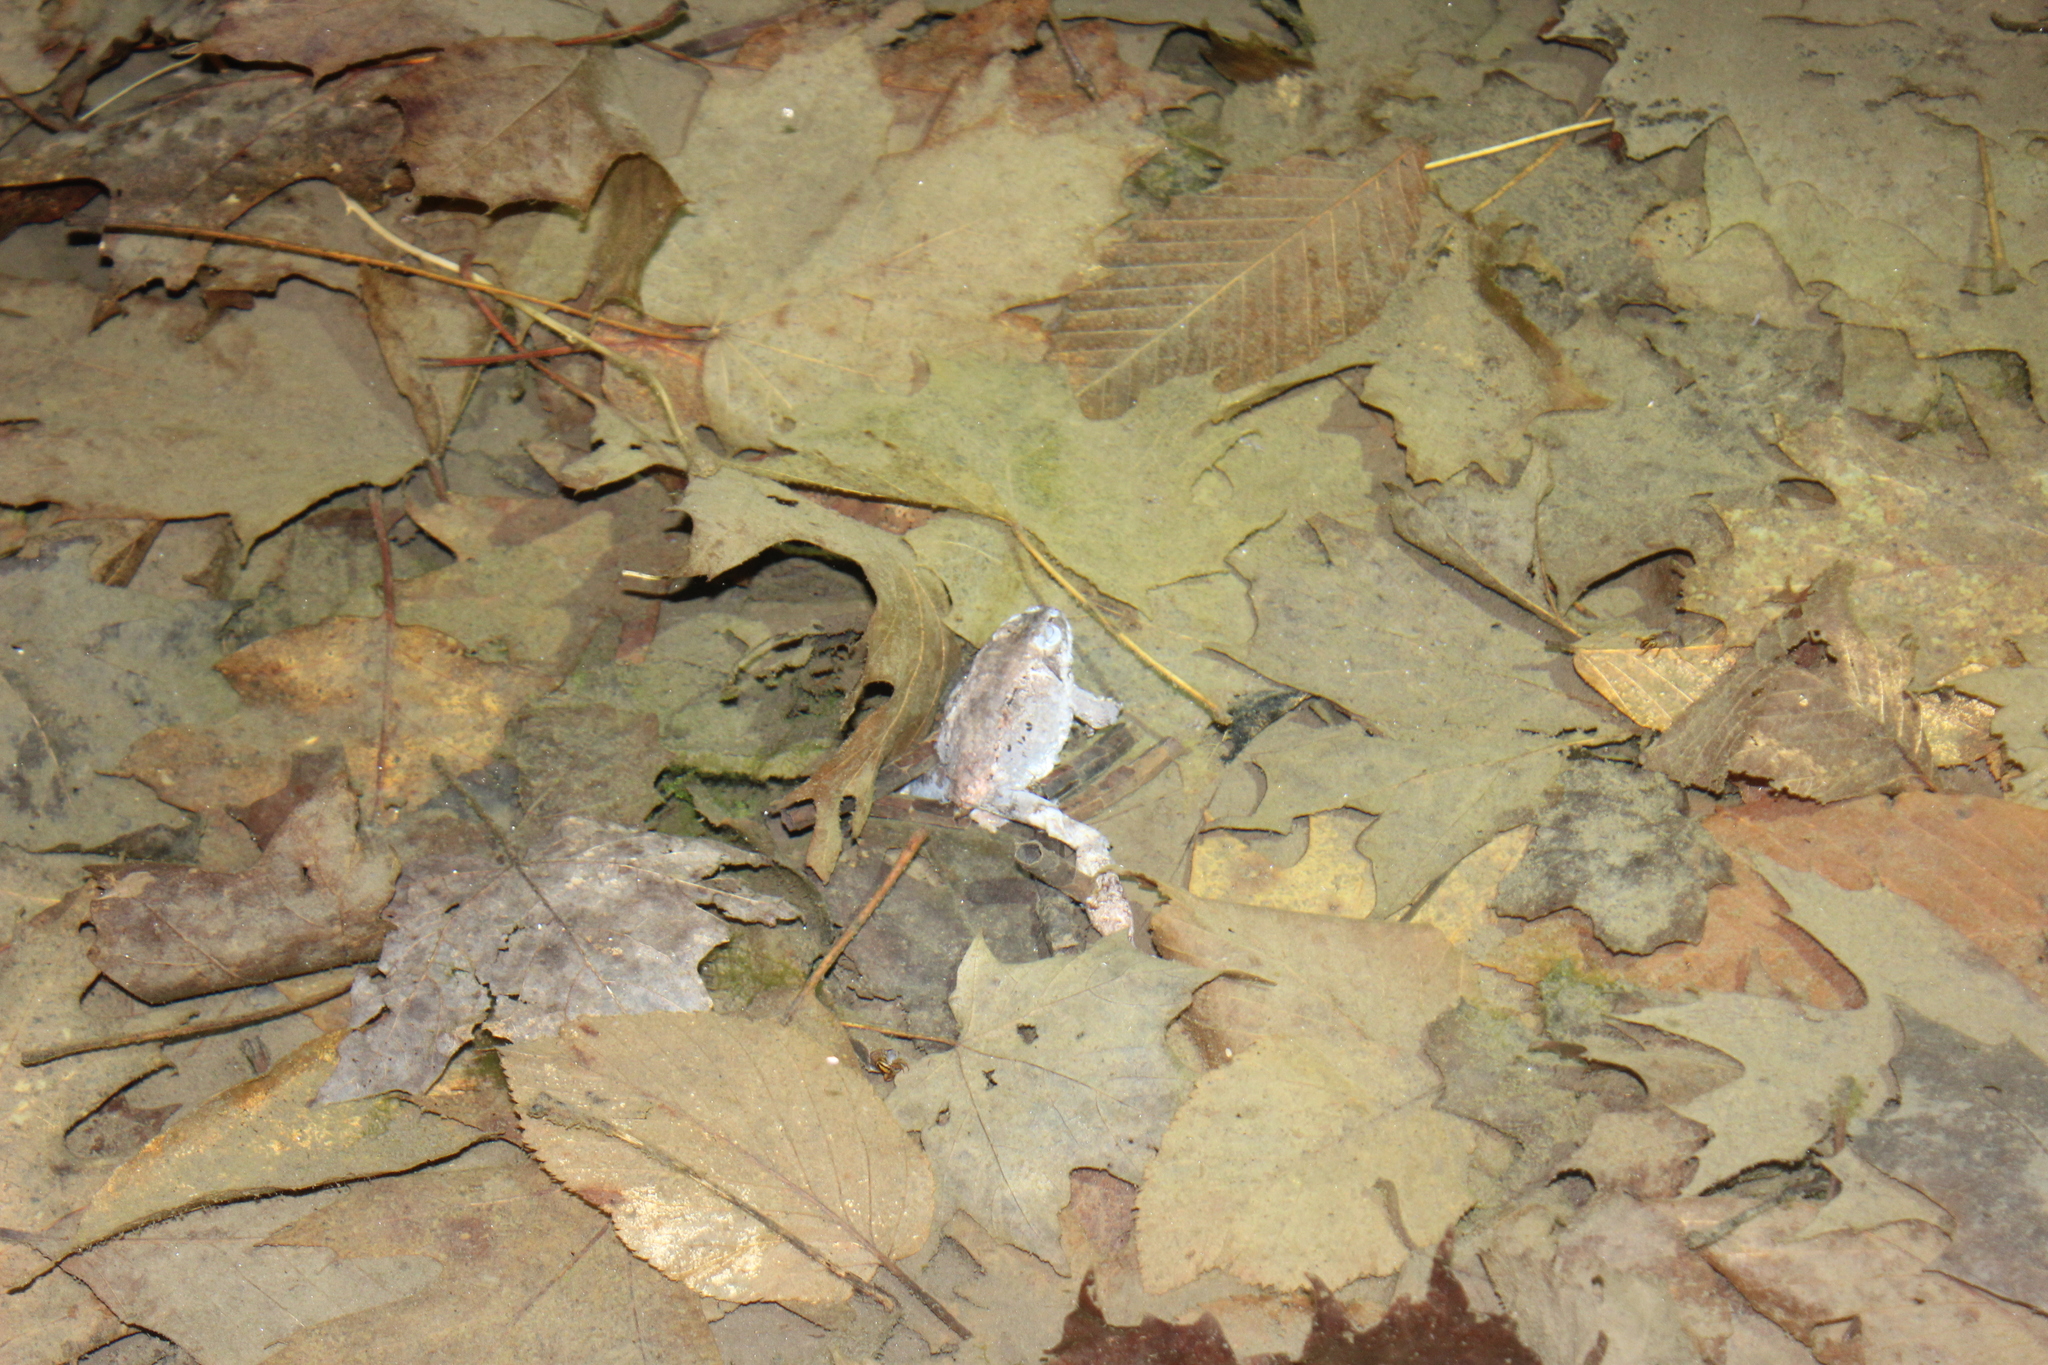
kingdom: Animalia
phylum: Chordata
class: Amphibia
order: Anura
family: Ranidae
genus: Lithobates
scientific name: Lithobates sylvaticus
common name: Wood frog
